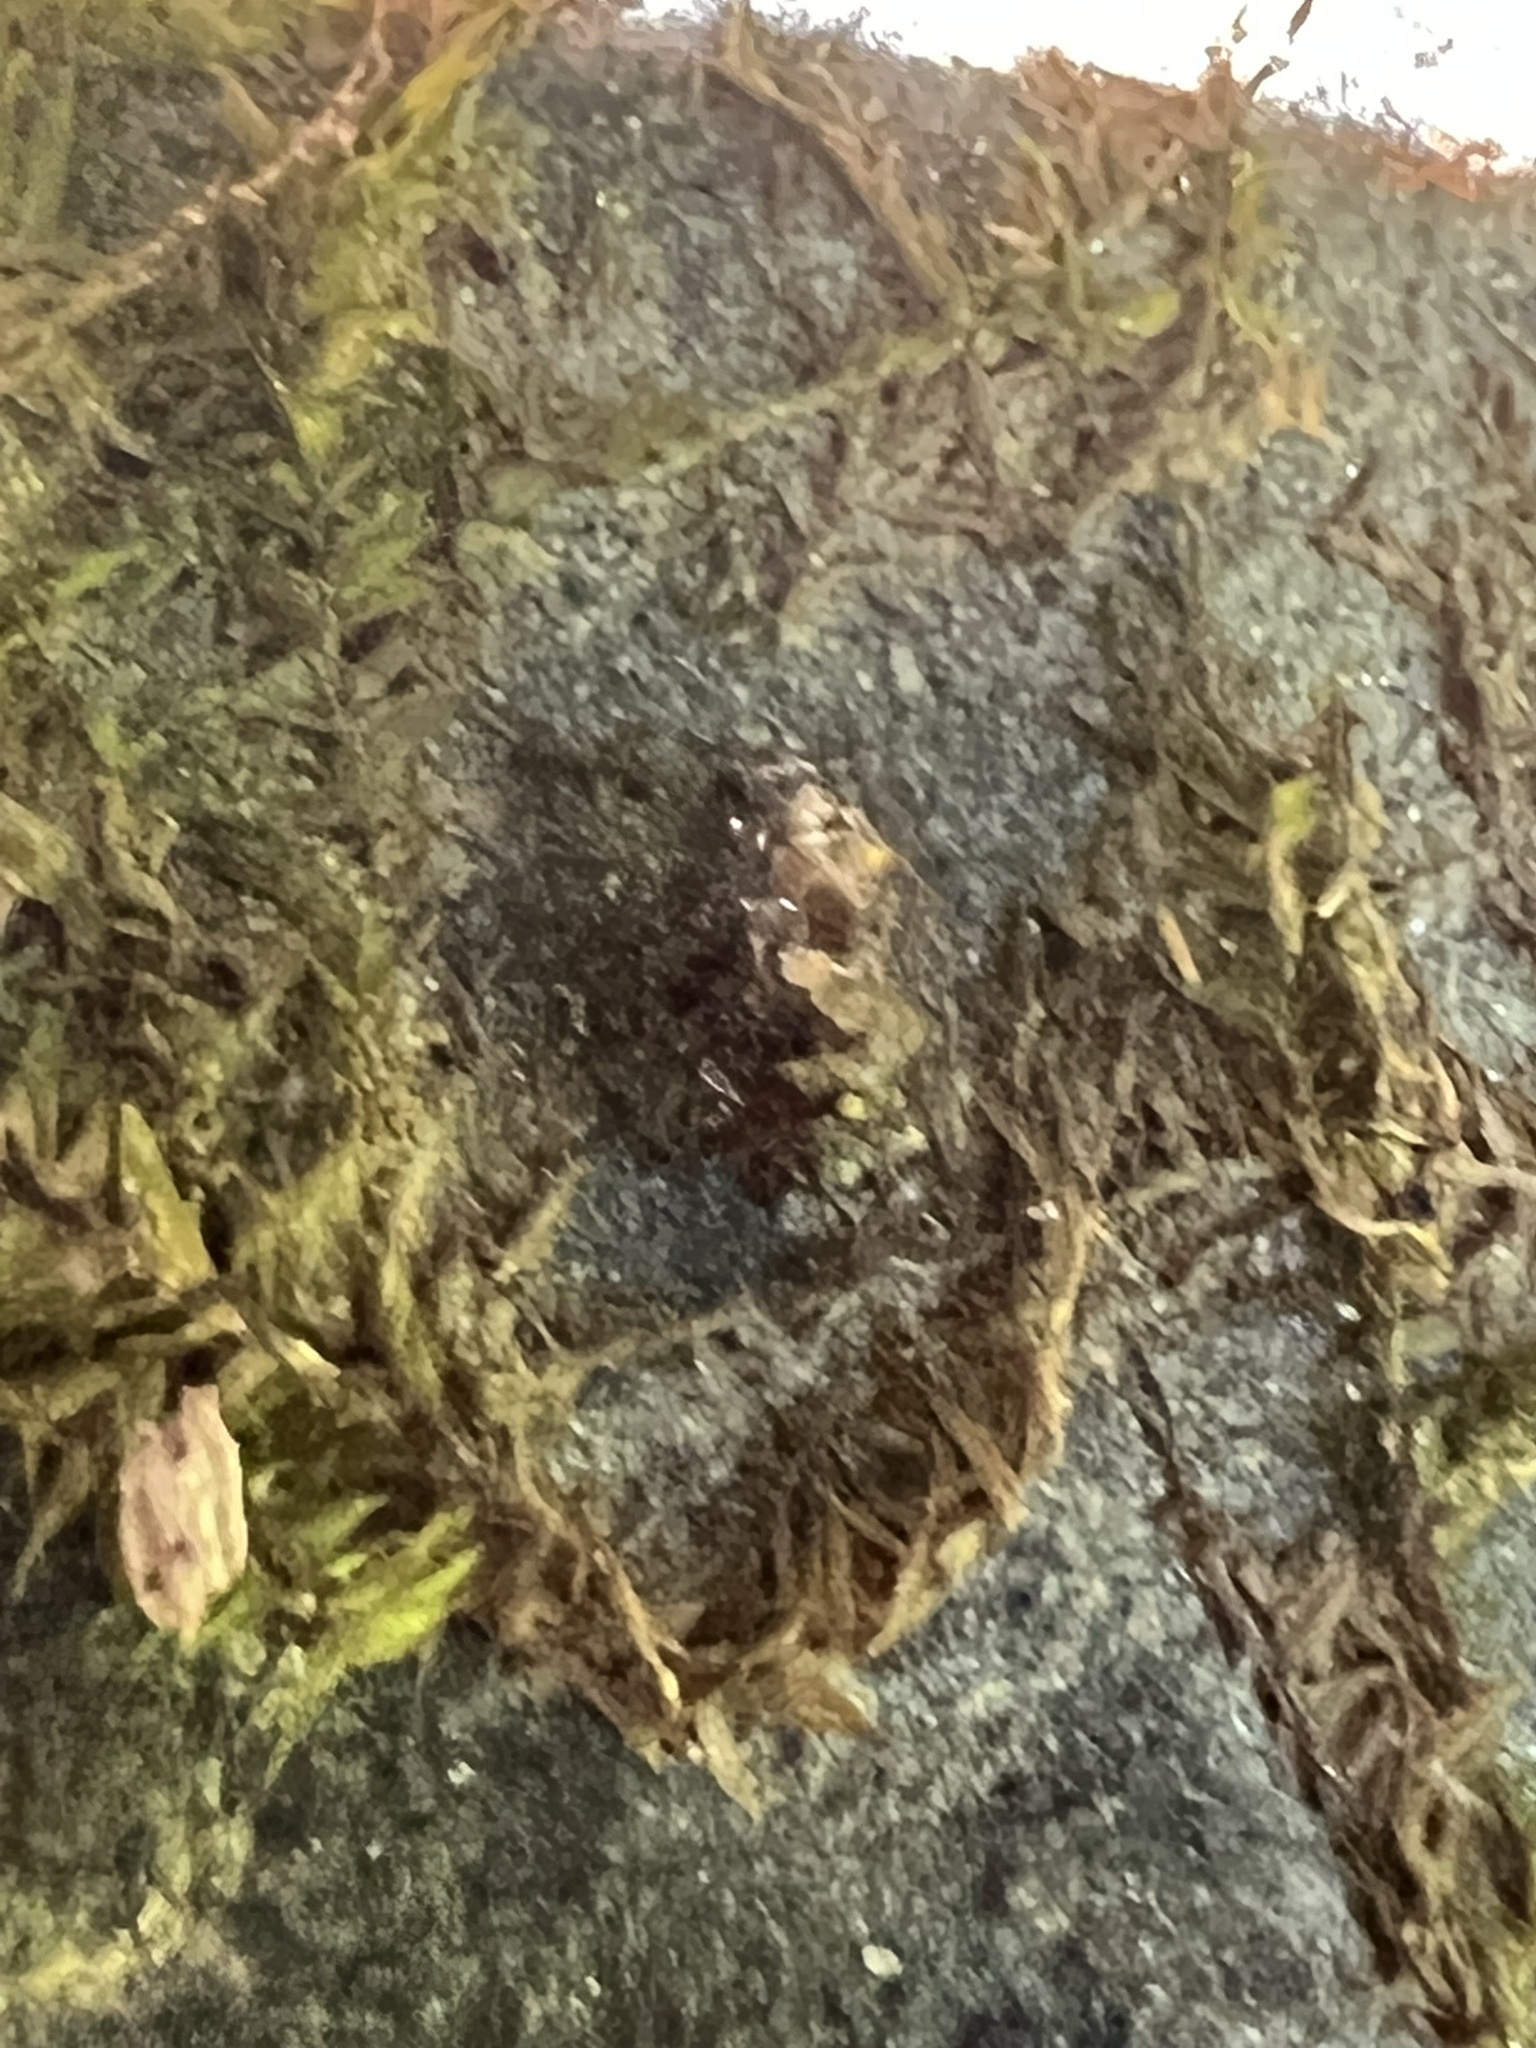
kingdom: Animalia
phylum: Arthropoda
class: Insecta
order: Hemiptera
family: Gelastocoridae
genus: Gelastocoris
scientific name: Gelastocoris oculatus
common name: Toad bug
